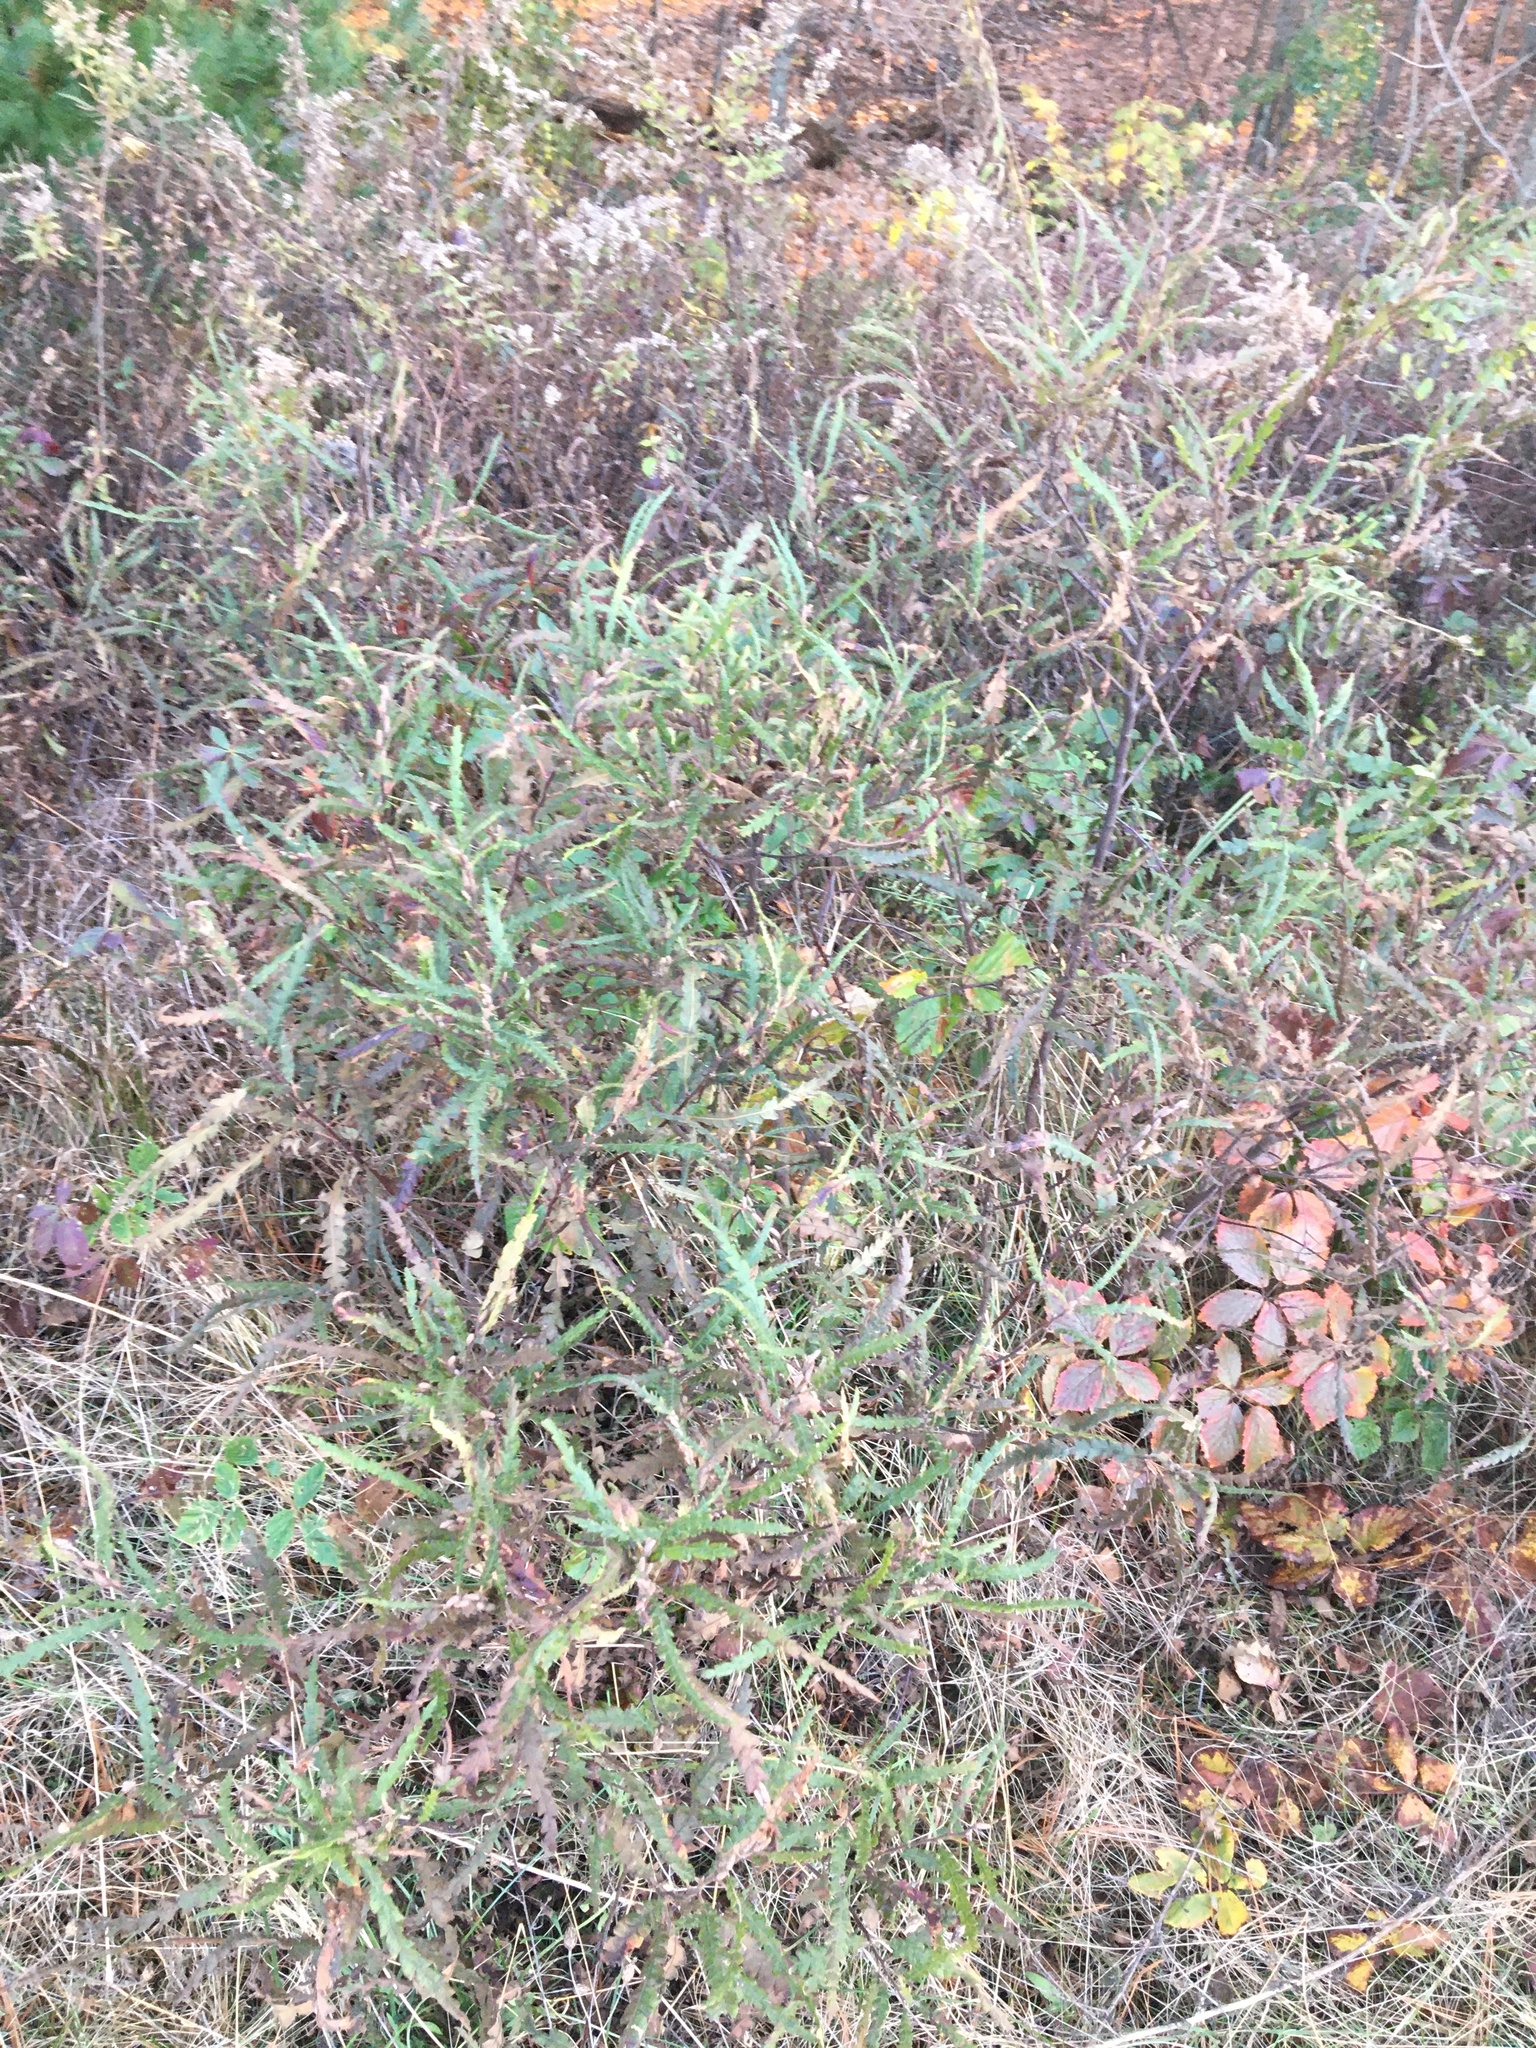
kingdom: Plantae
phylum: Tracheophyta
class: Magnoliopsida
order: Fagales
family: Myricaceae
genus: Comptonia
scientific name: Comptonia peregrina
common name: Sweet-fern
